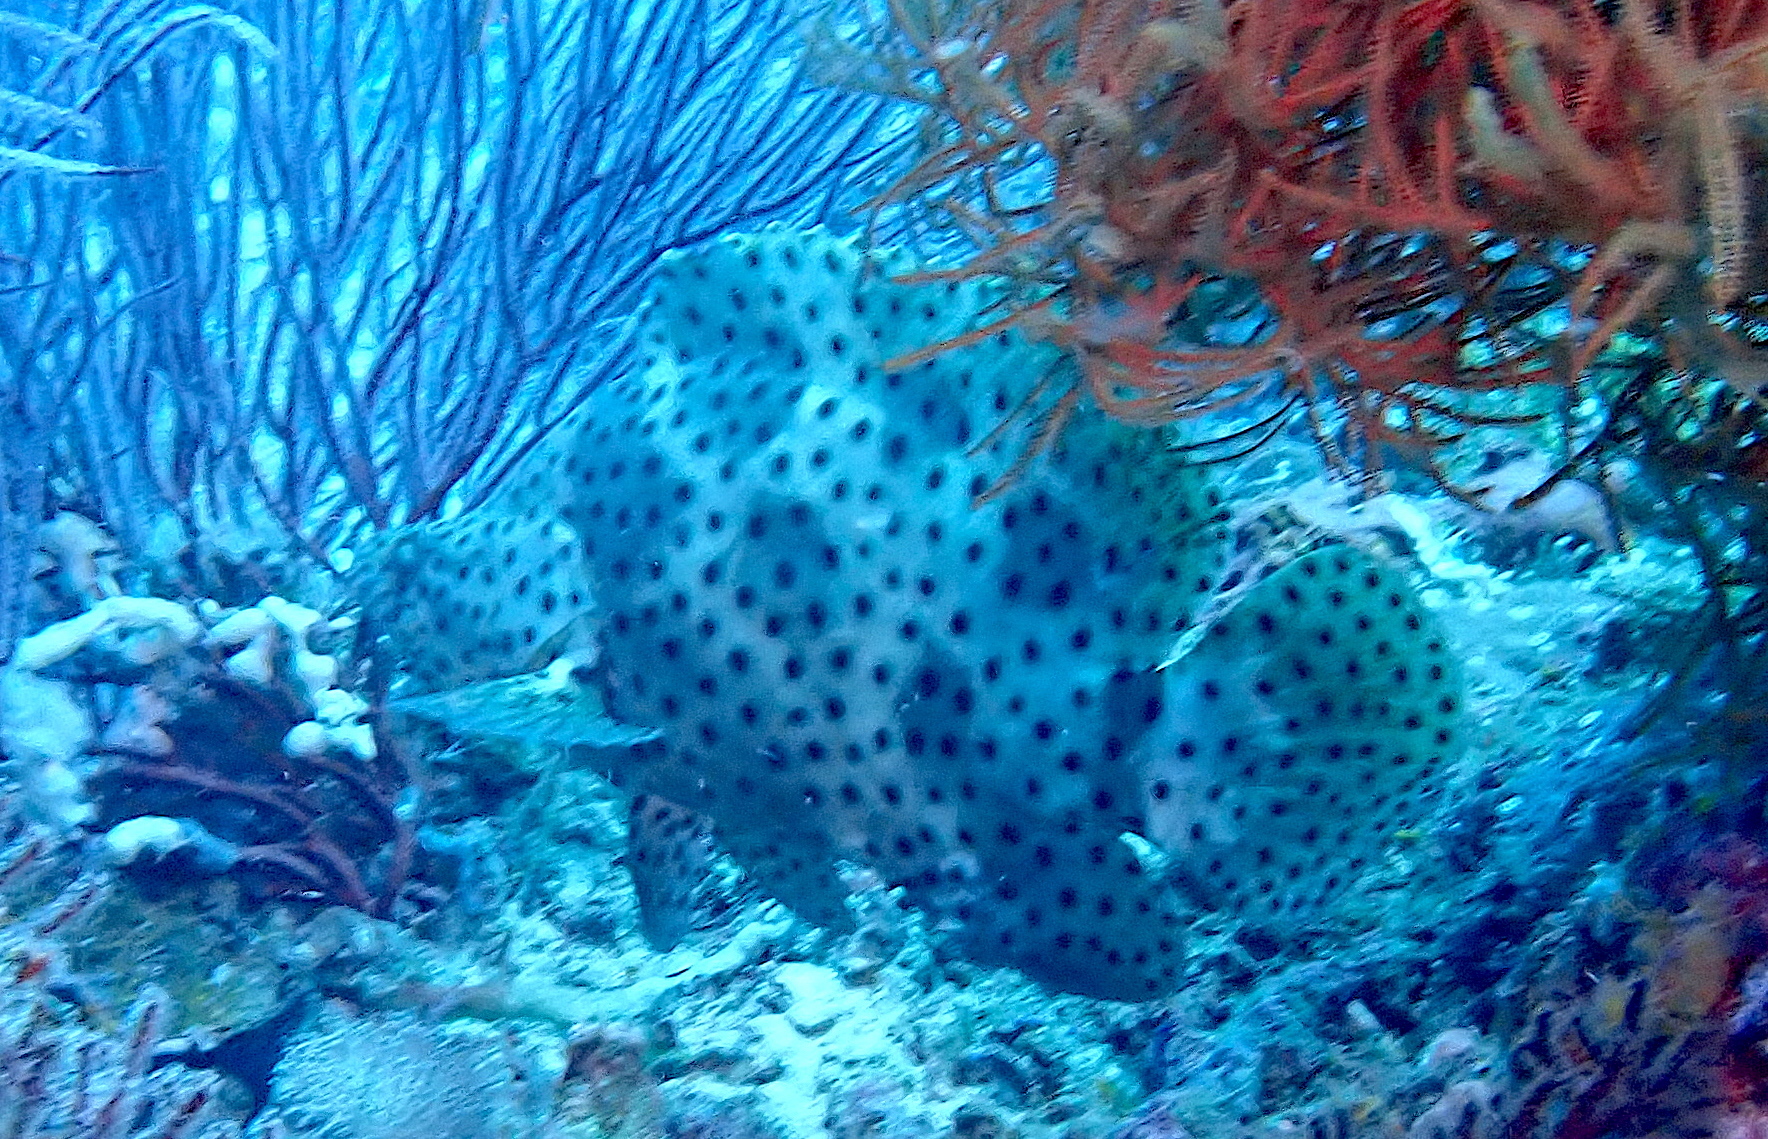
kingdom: Animalia
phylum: Chordata
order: Perciformes
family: Serranidae
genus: Cromileptes
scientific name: Cromileptes altivelis
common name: Humpback grouper
